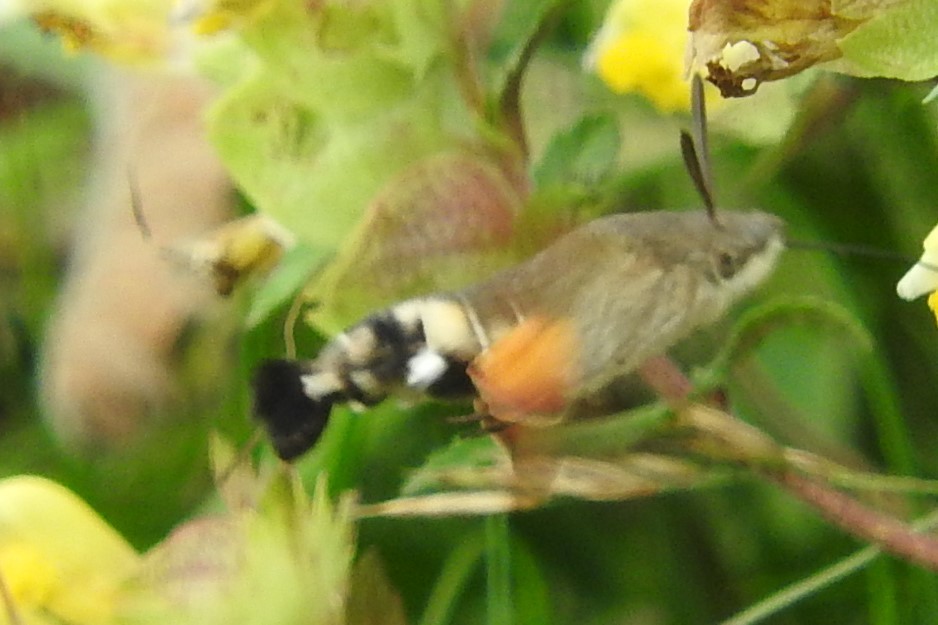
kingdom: Animalia
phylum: Arthropoda
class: Insecta
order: Lepidoptera
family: Sphingidae
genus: Macroglossum
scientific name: Macroglossum stellatarum
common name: Humming-bird hawk-moth
